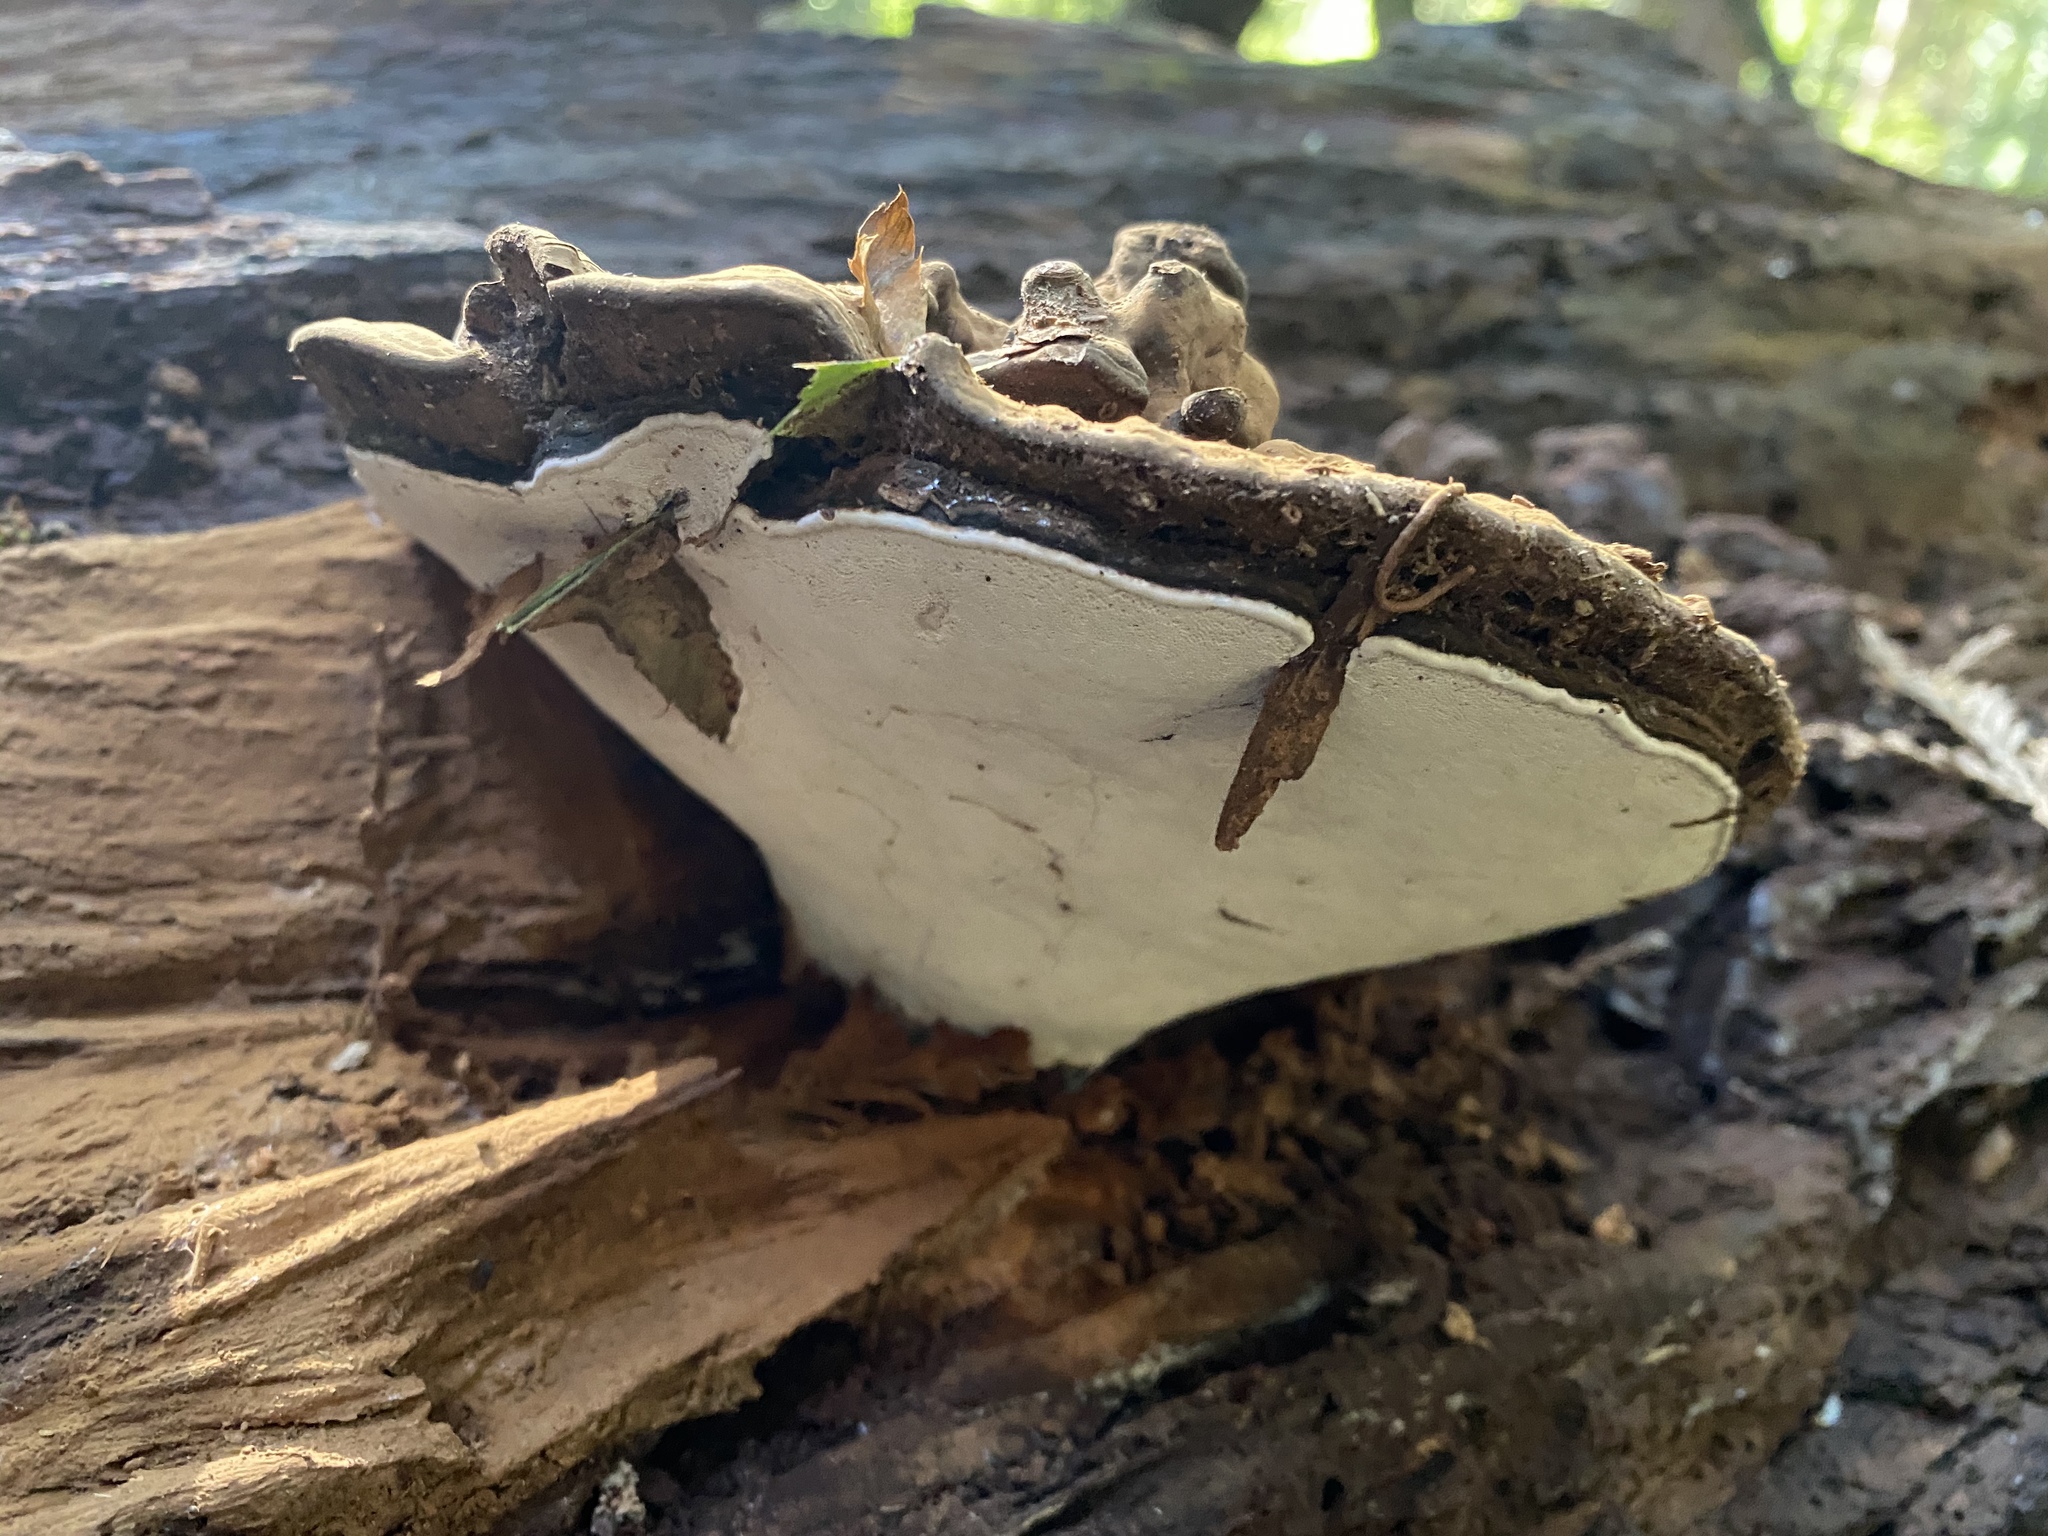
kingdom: Fungi
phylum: Basidiomycota
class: Agaricomycetes
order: Polyporales
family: Polyporaceae
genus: Ganoderma
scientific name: Ganoderma brownii
